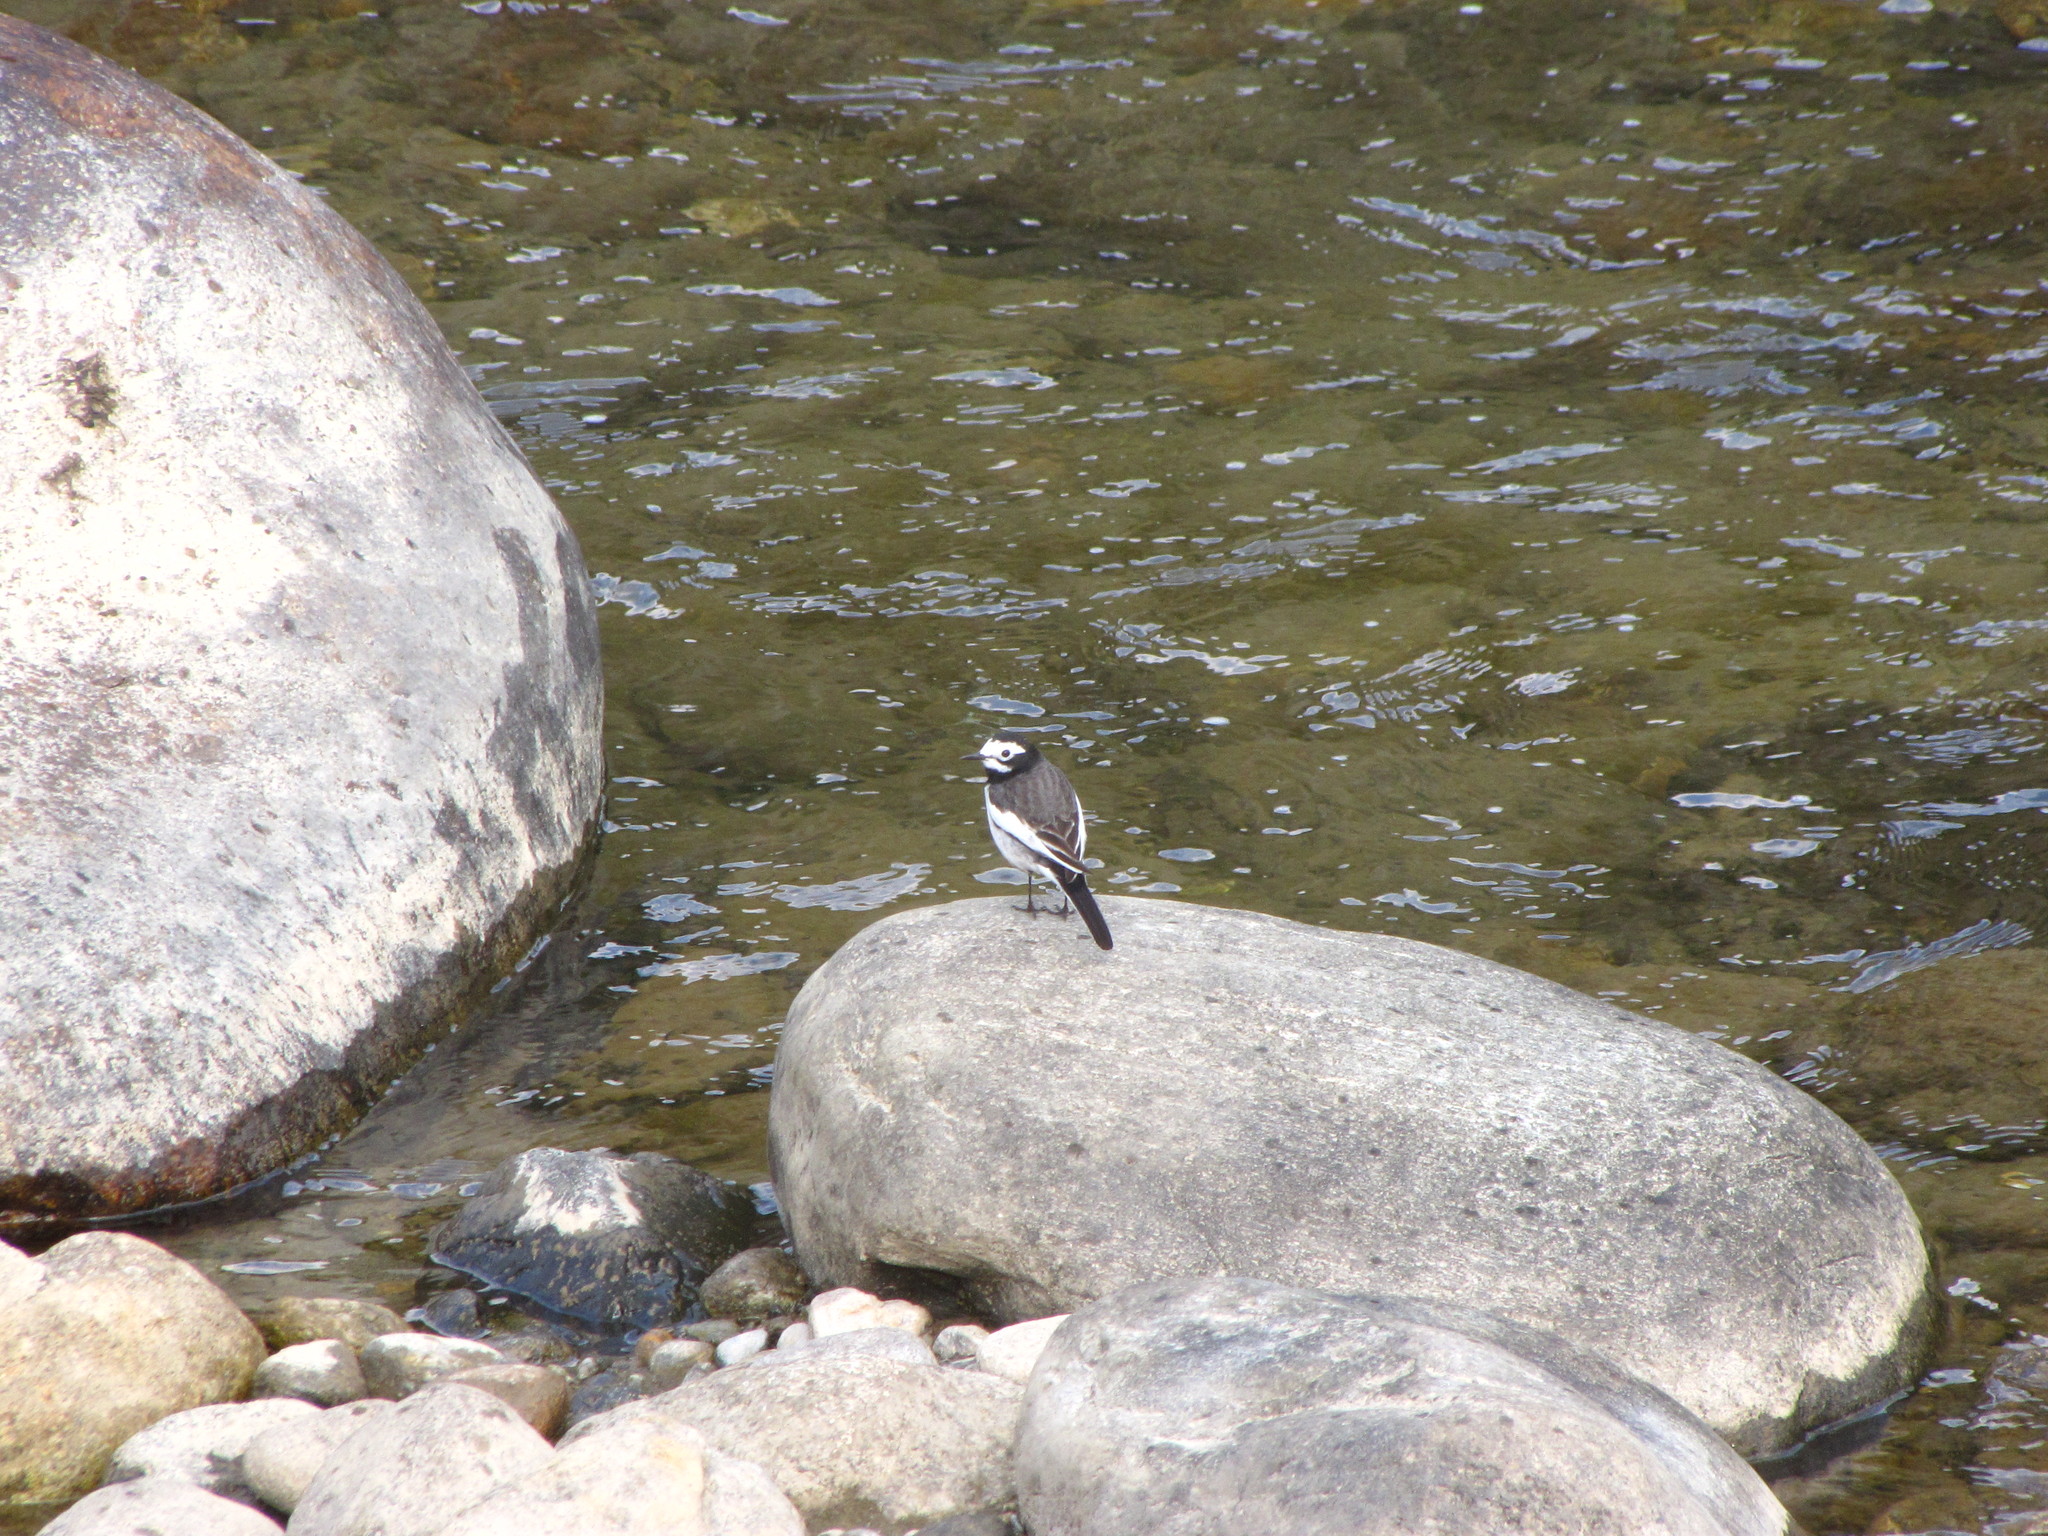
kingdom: Animalia
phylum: Chordata
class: Aves
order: Passeriformes
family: Motacillidae
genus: Motacilla
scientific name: Motacilla alba
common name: White wagtail
